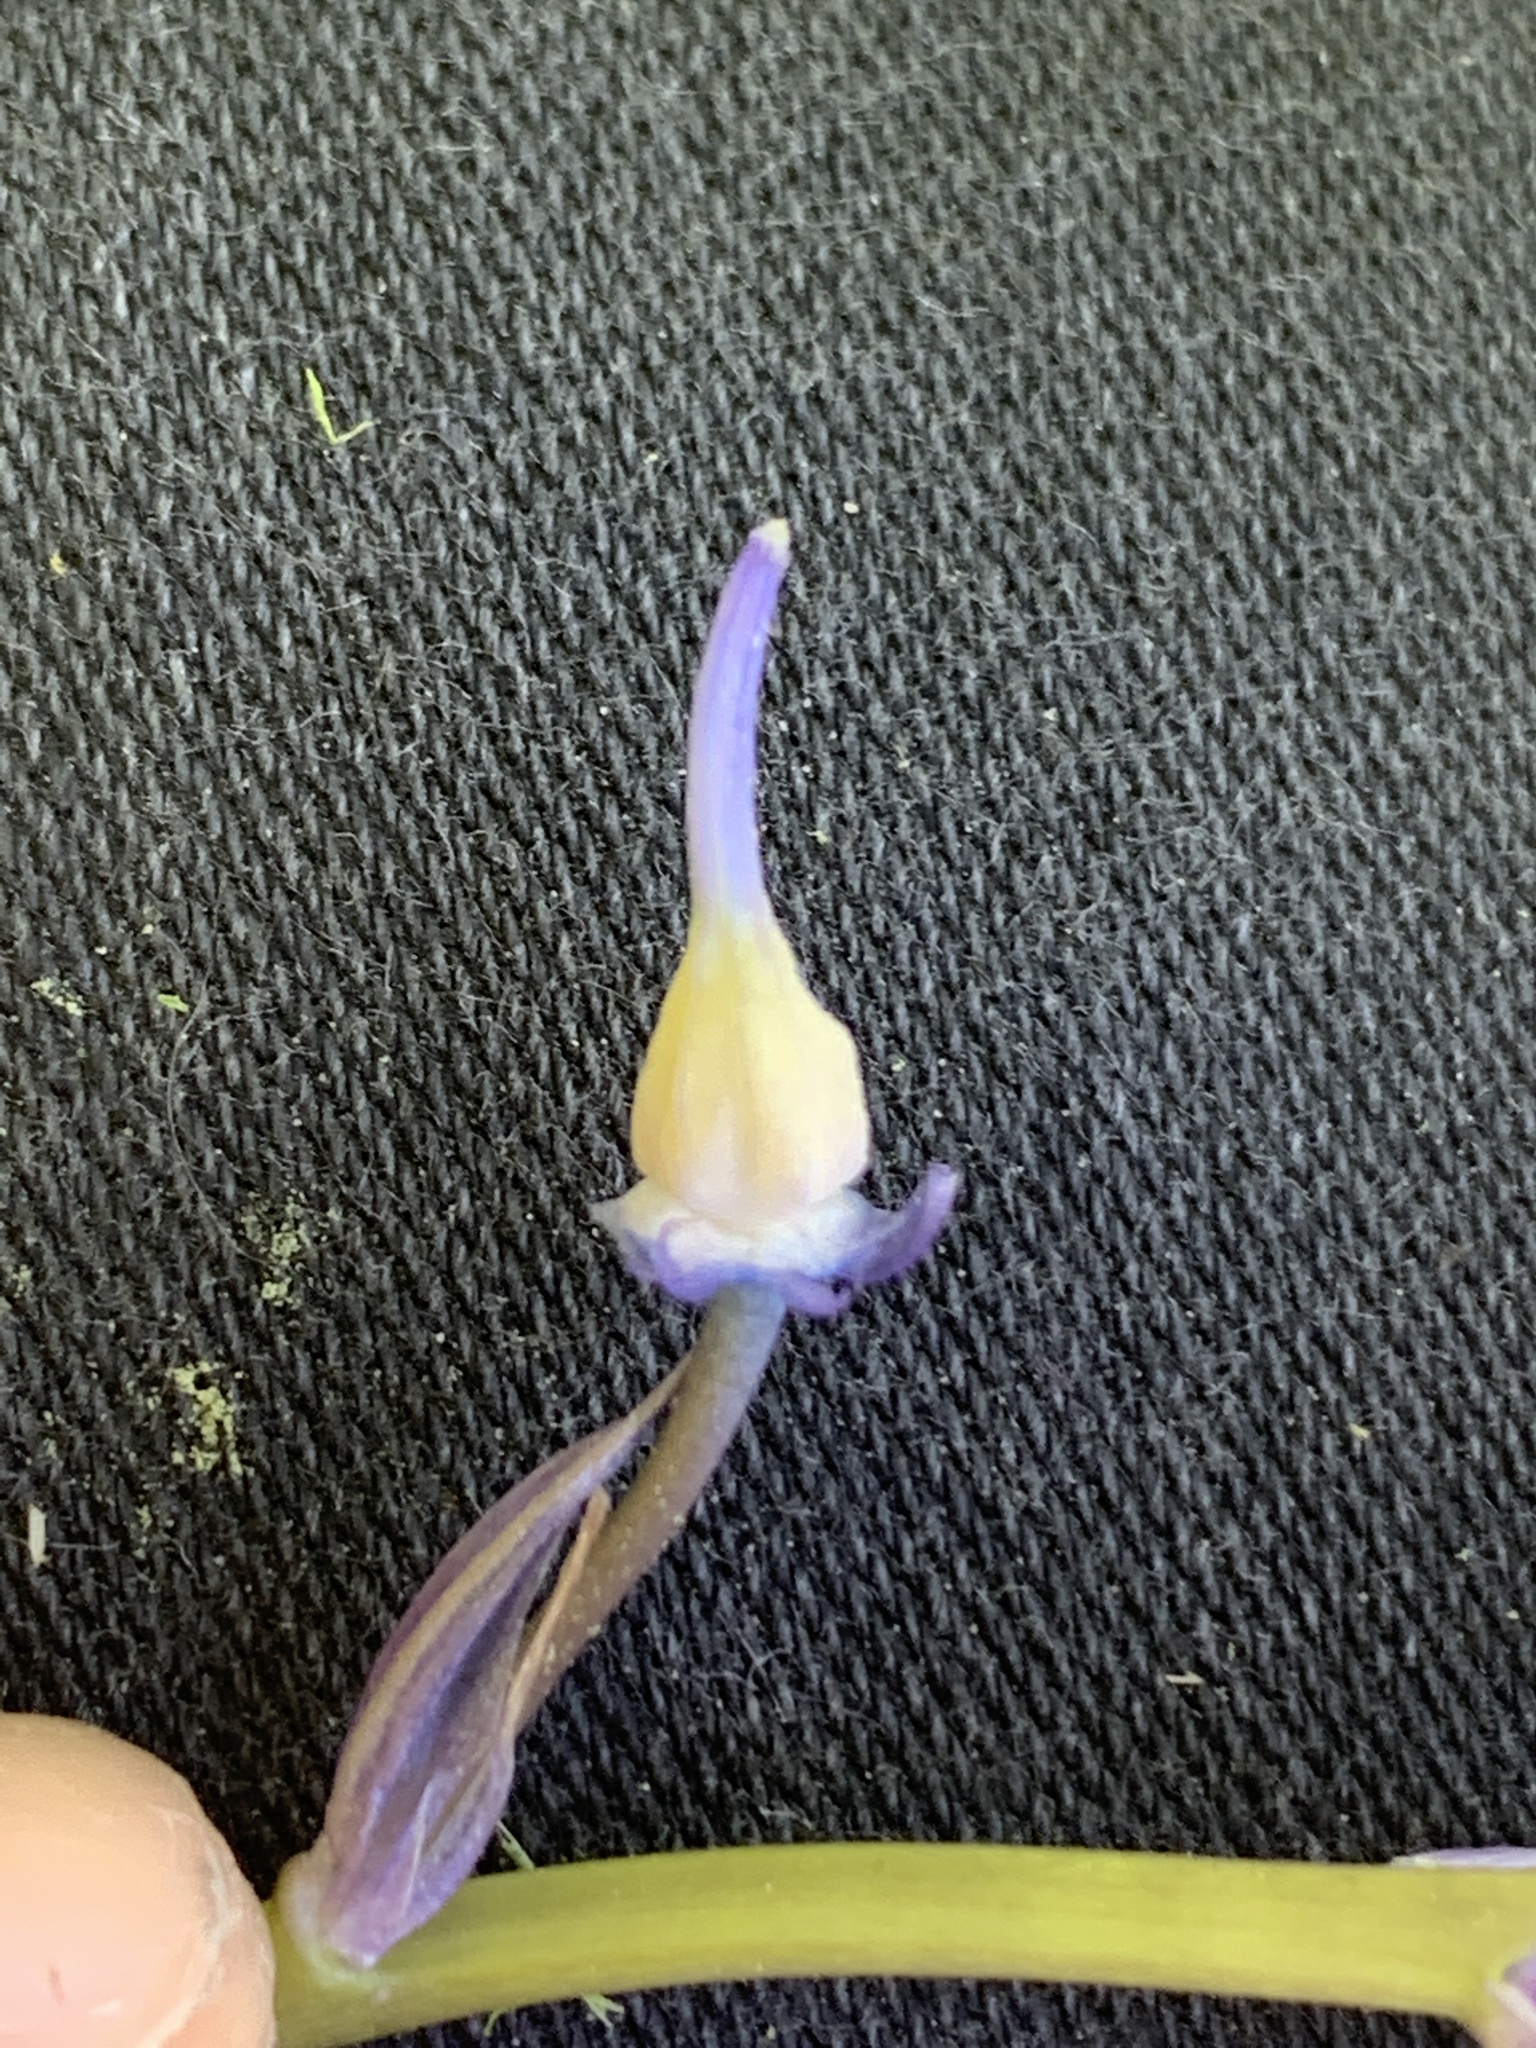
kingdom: Plantae
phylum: Tracheophyta
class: Liliopsida
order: Asparagales
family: Asparagaceae
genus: Hyacinthoides
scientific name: Hyacinthoides massartiana
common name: Hyacinthoides
